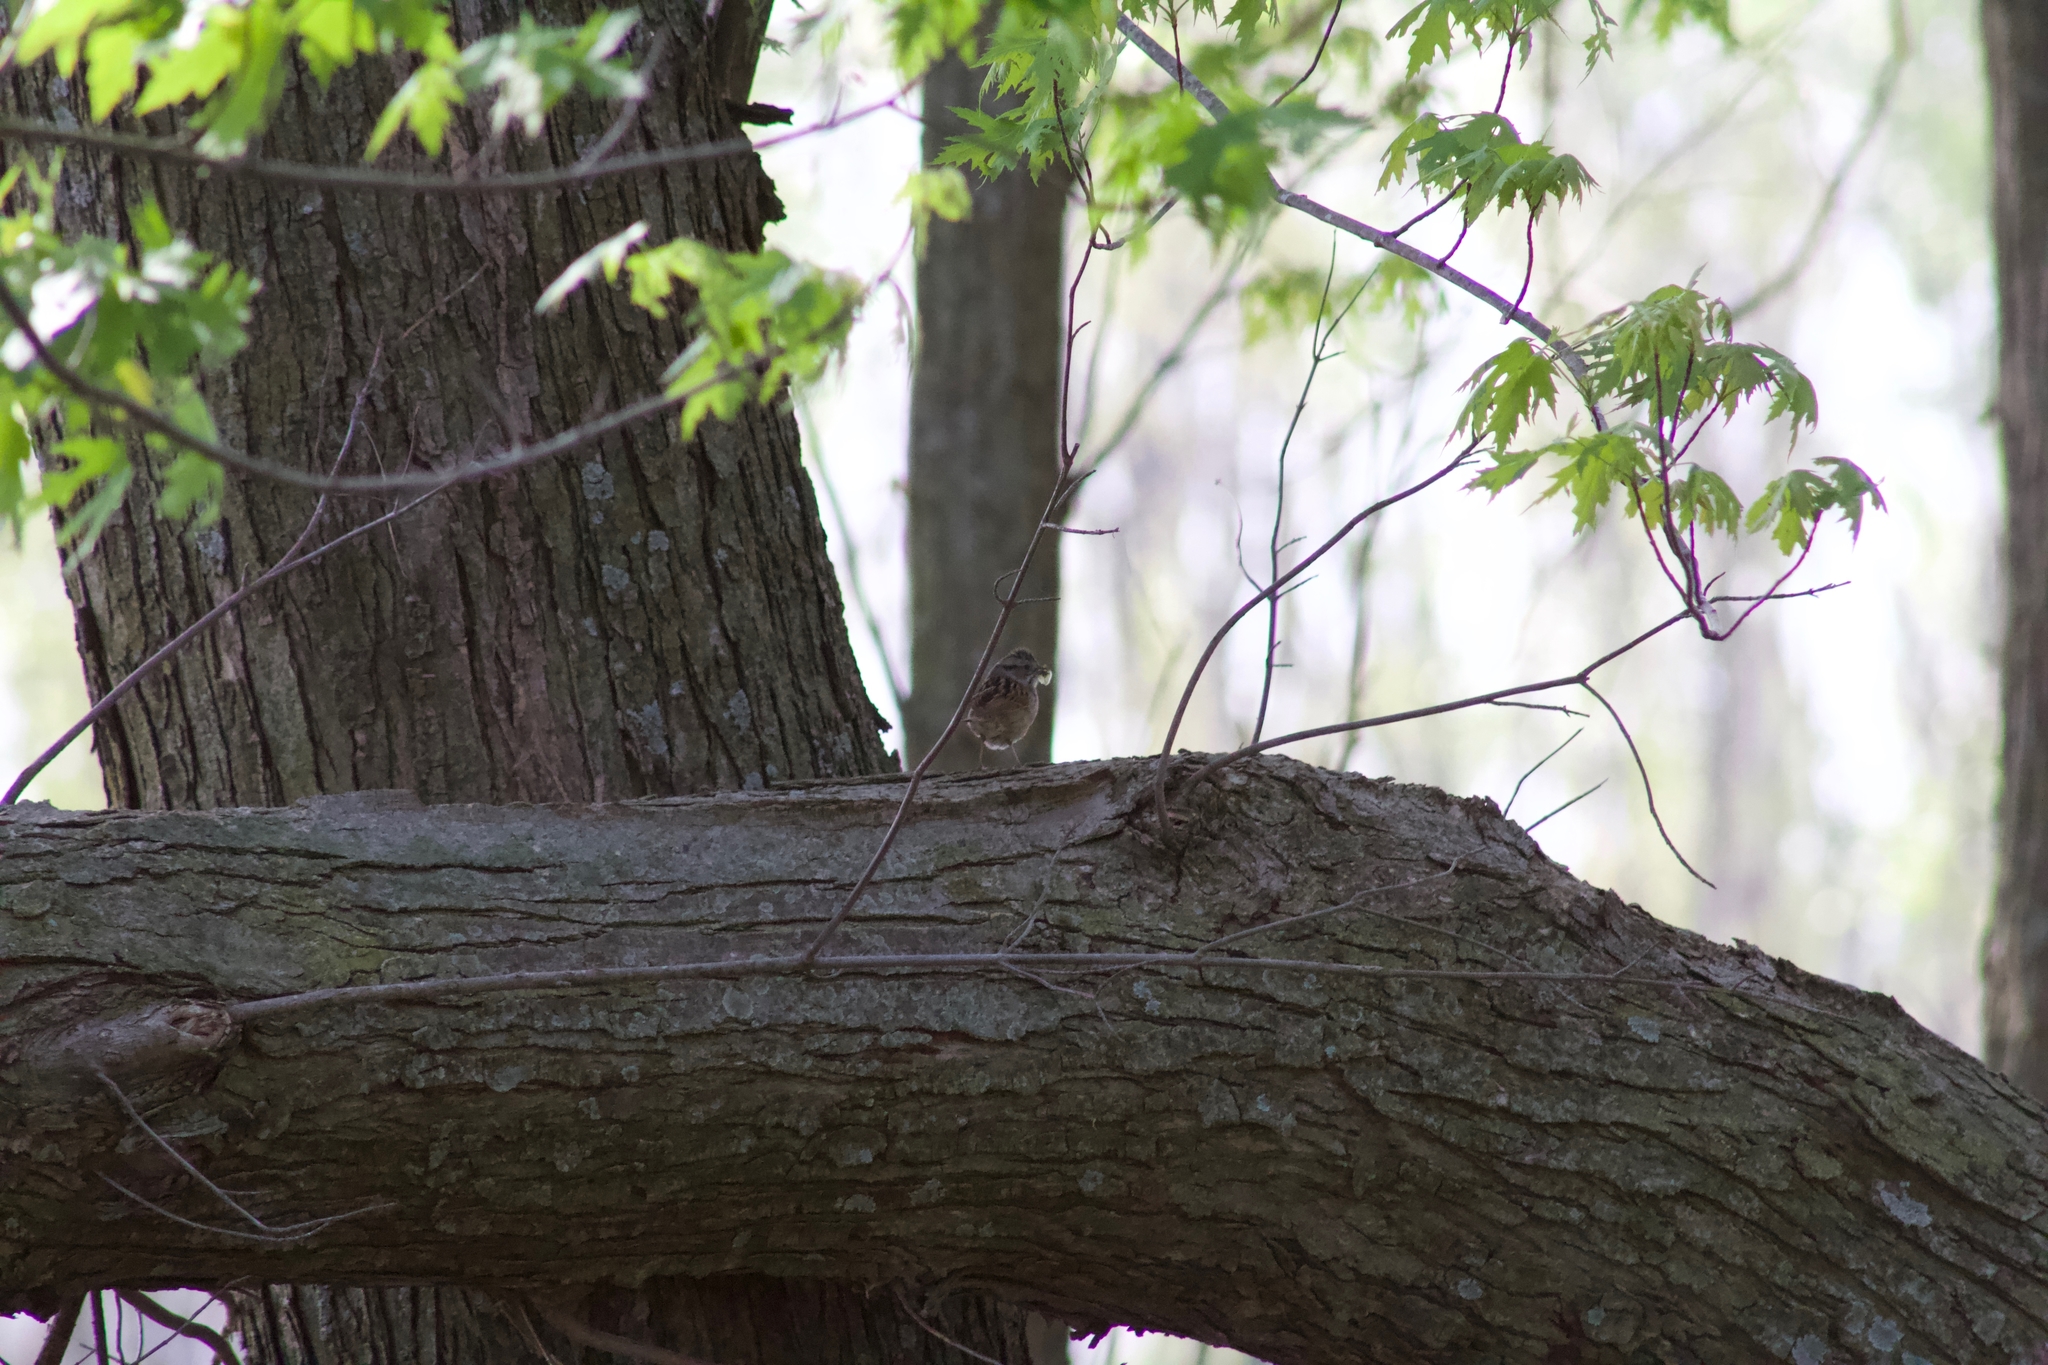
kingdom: Animalia
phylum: Chordata
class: Aves
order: Passeriformes
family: Passerellidae
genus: Melospiza
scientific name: Melospiza georgiana
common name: Swamp sparrow
